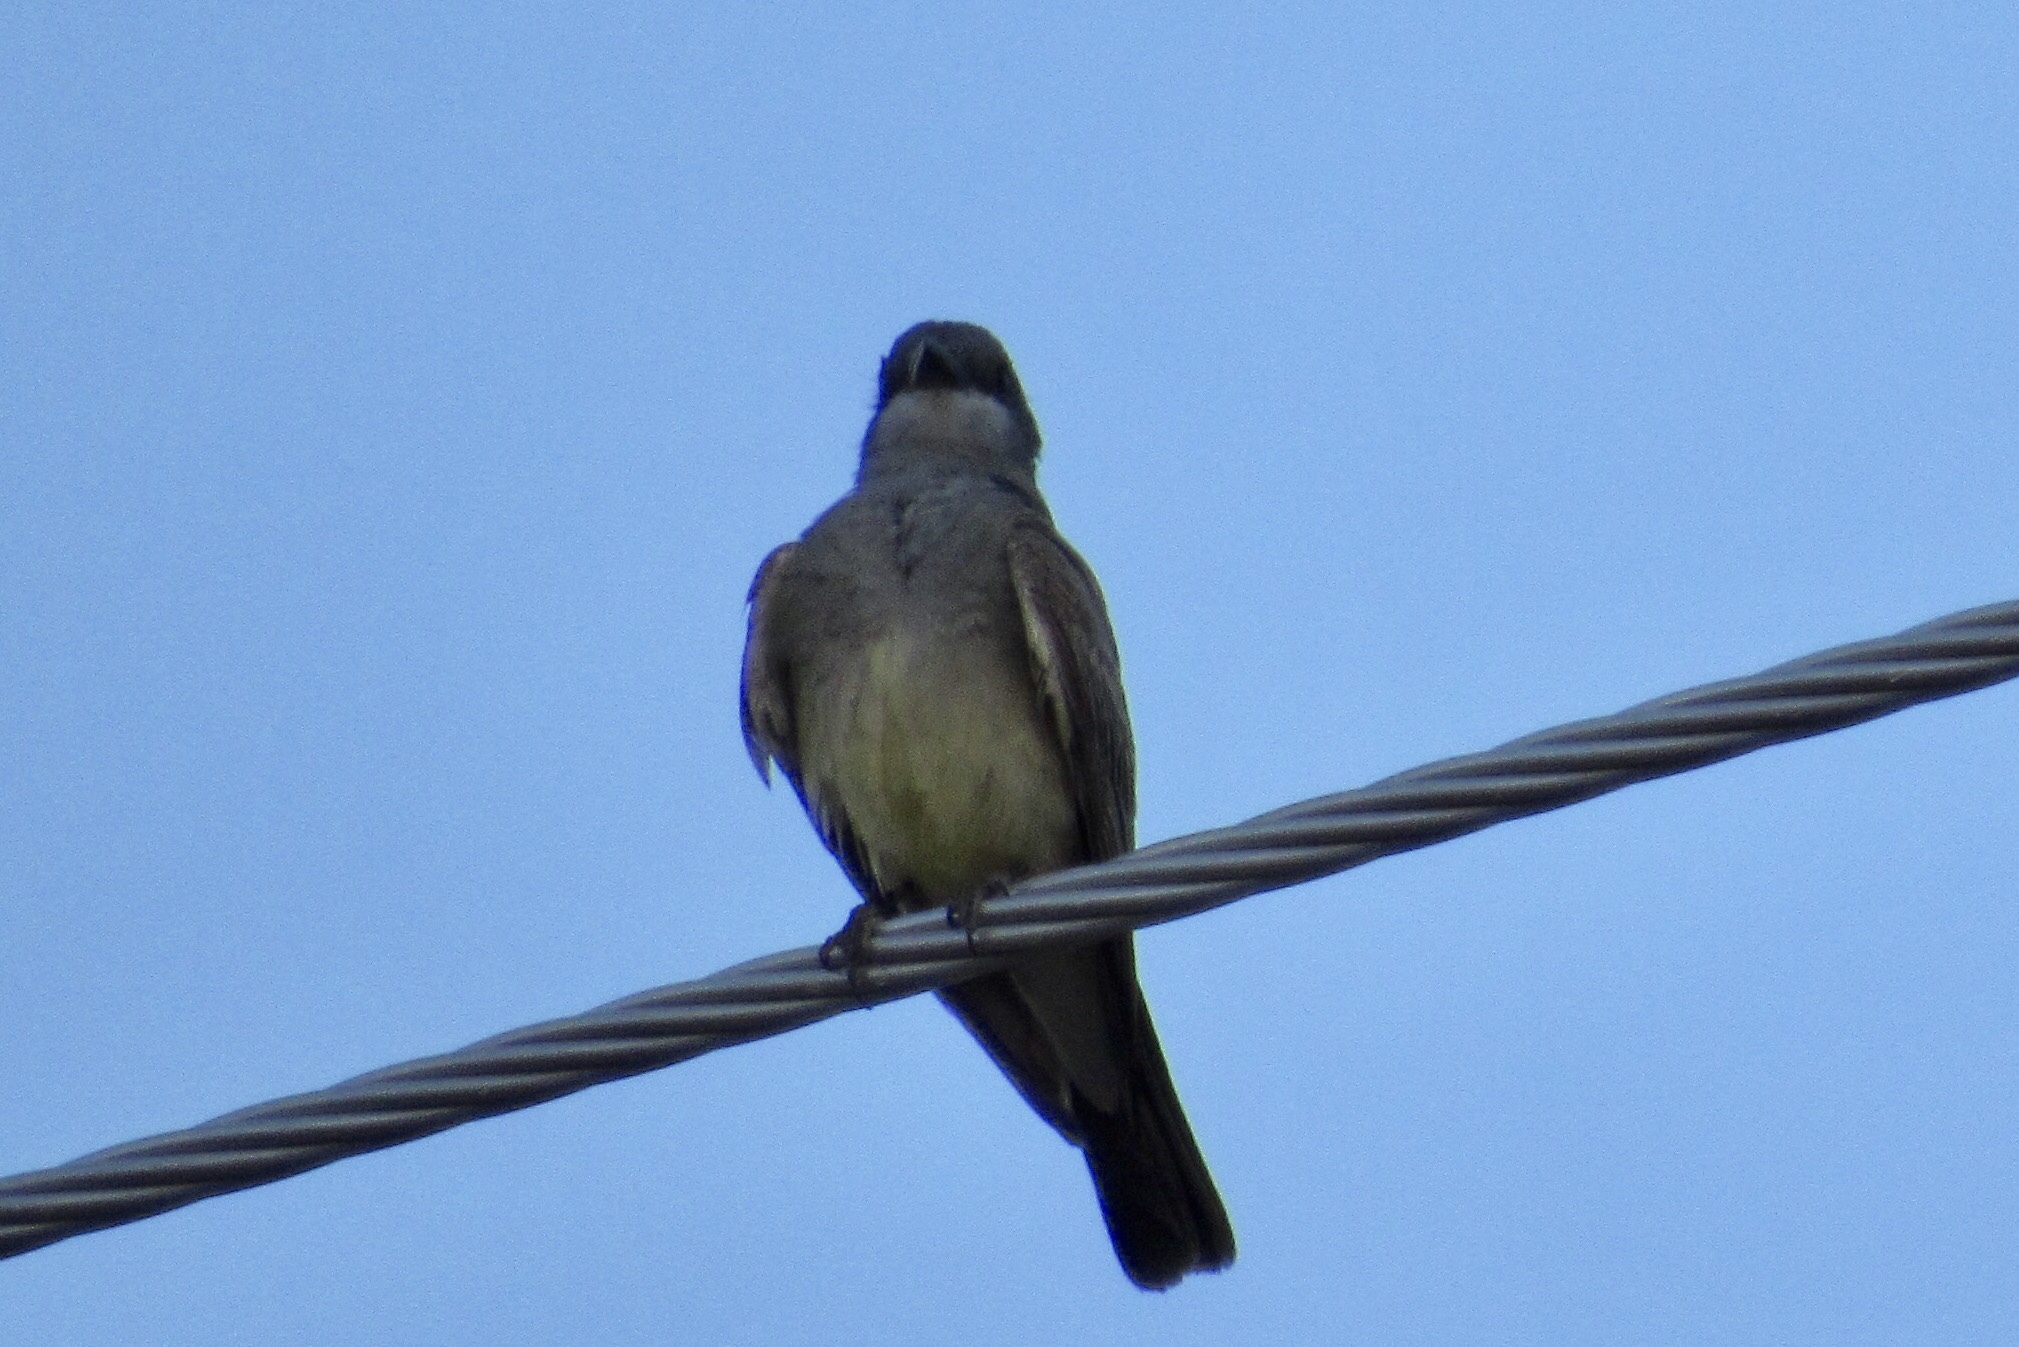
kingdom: Animalia
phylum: Chordata
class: Aves
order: Passeriformes
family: Tyrannidae
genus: Tyrannus
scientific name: Tyrannus vociferans
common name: Cassin's kingbird
